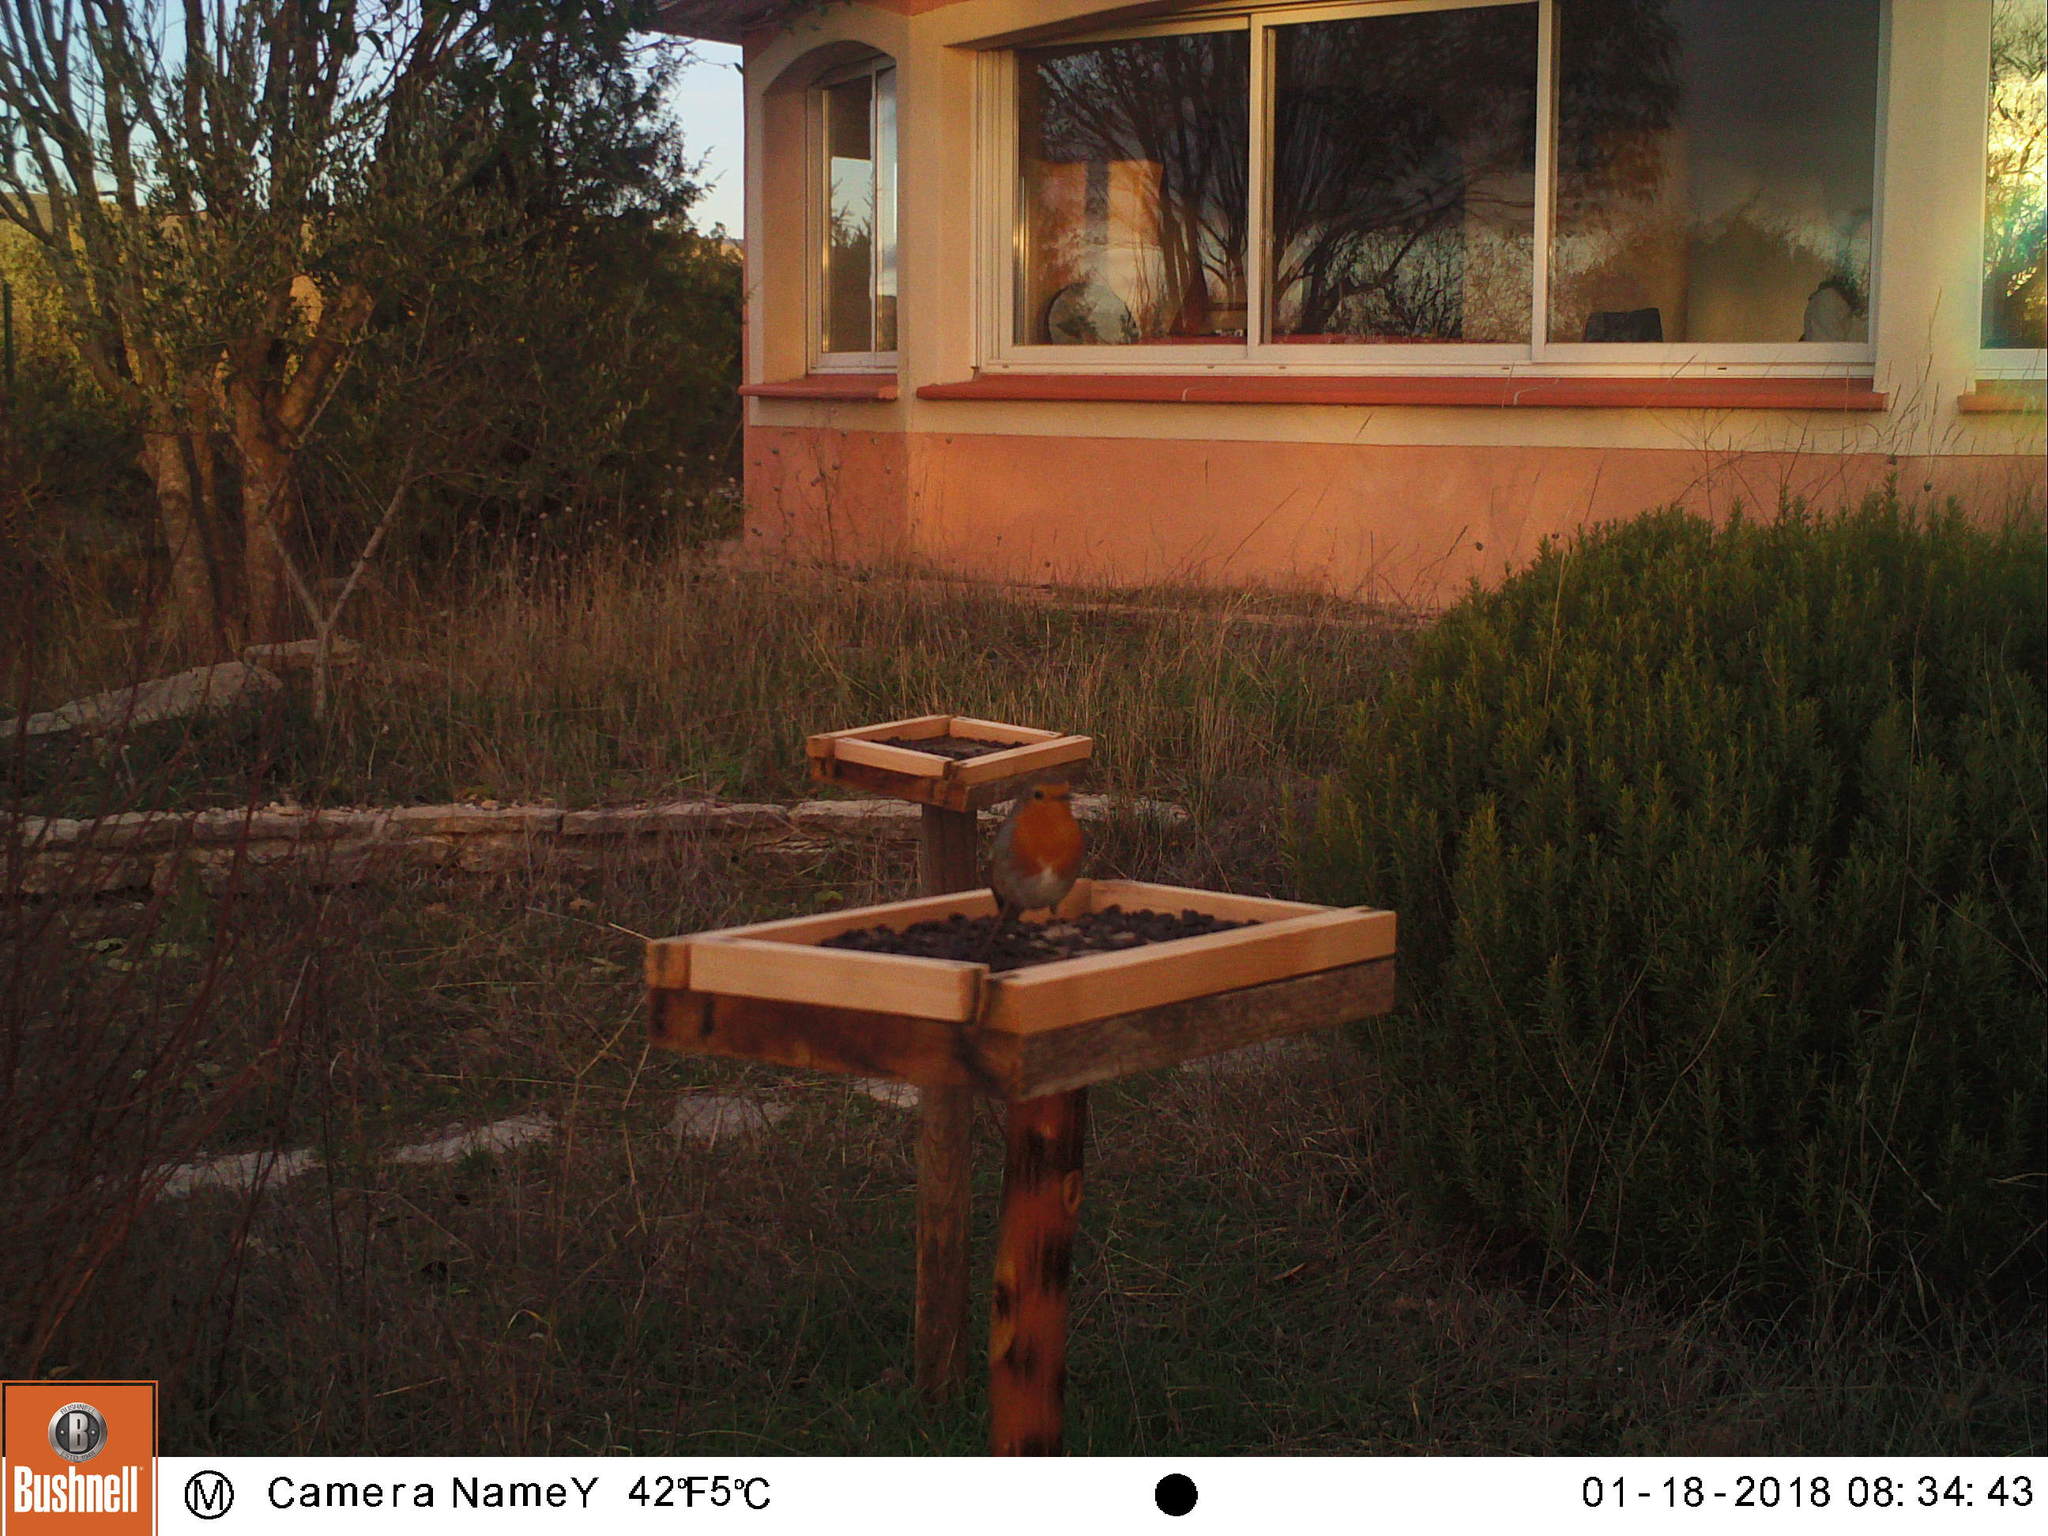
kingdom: Animalia
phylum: Chordata
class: Aves
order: Passeriformes
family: Muscicapidae
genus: Erithacus
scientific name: Erithacus rubecula
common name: European robin
